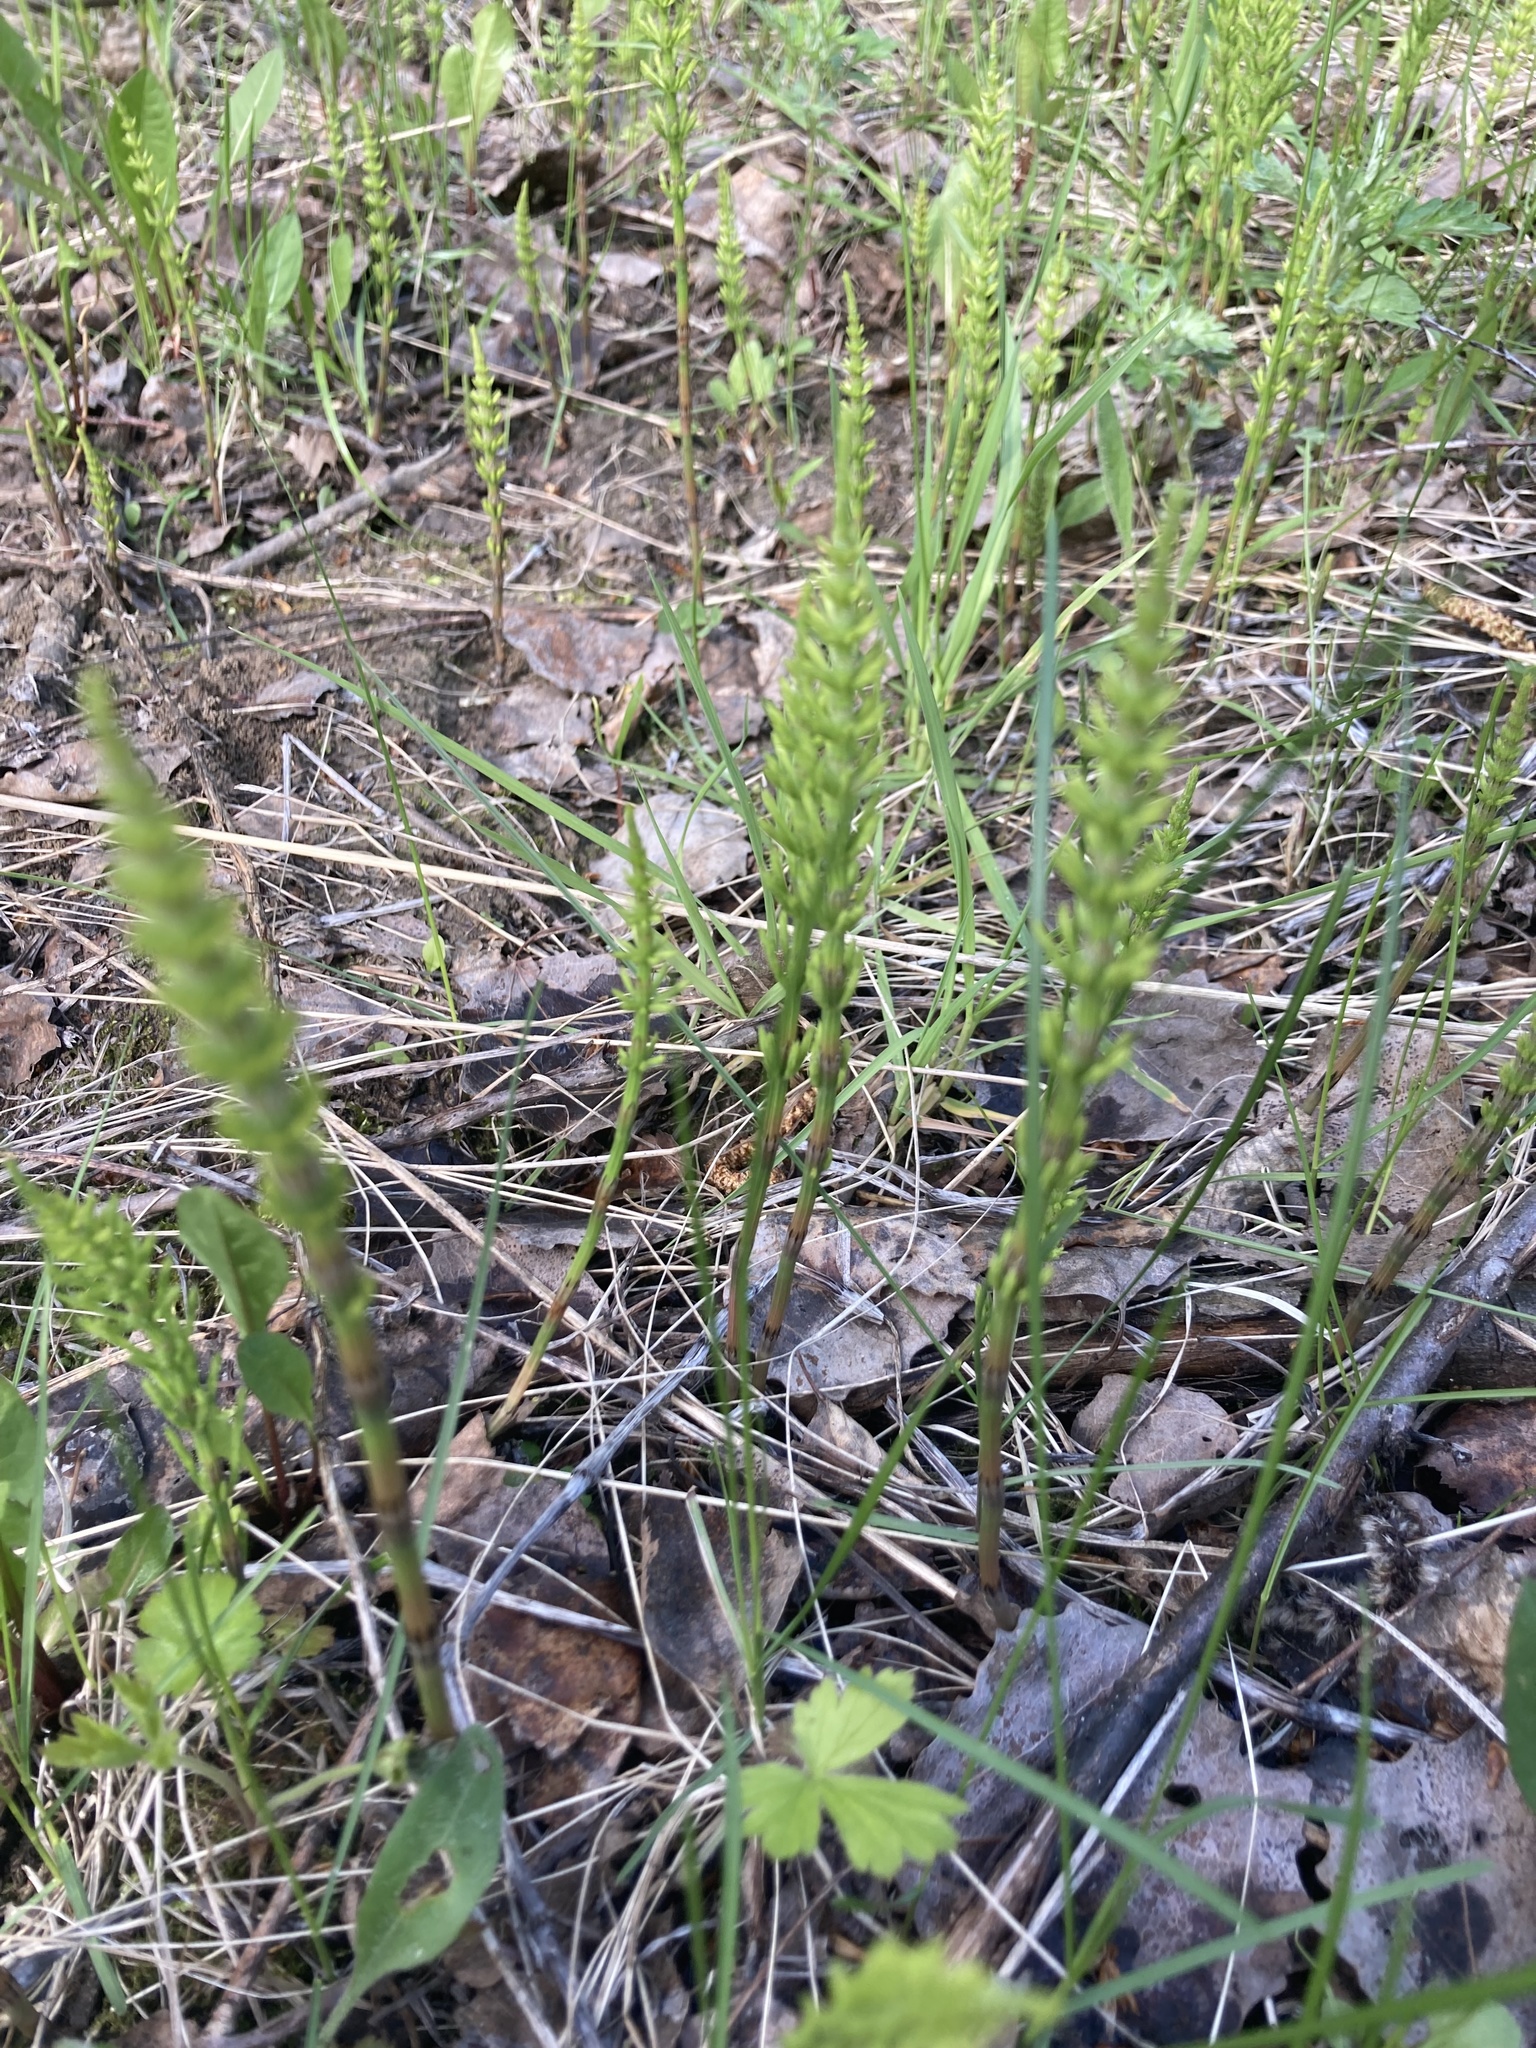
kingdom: Plantae
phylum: Tracheophyta
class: Polypodiopsida
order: Equisetales
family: Equisetaceae
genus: Equisetum
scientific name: Equisetum arvense
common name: Field horsetail
